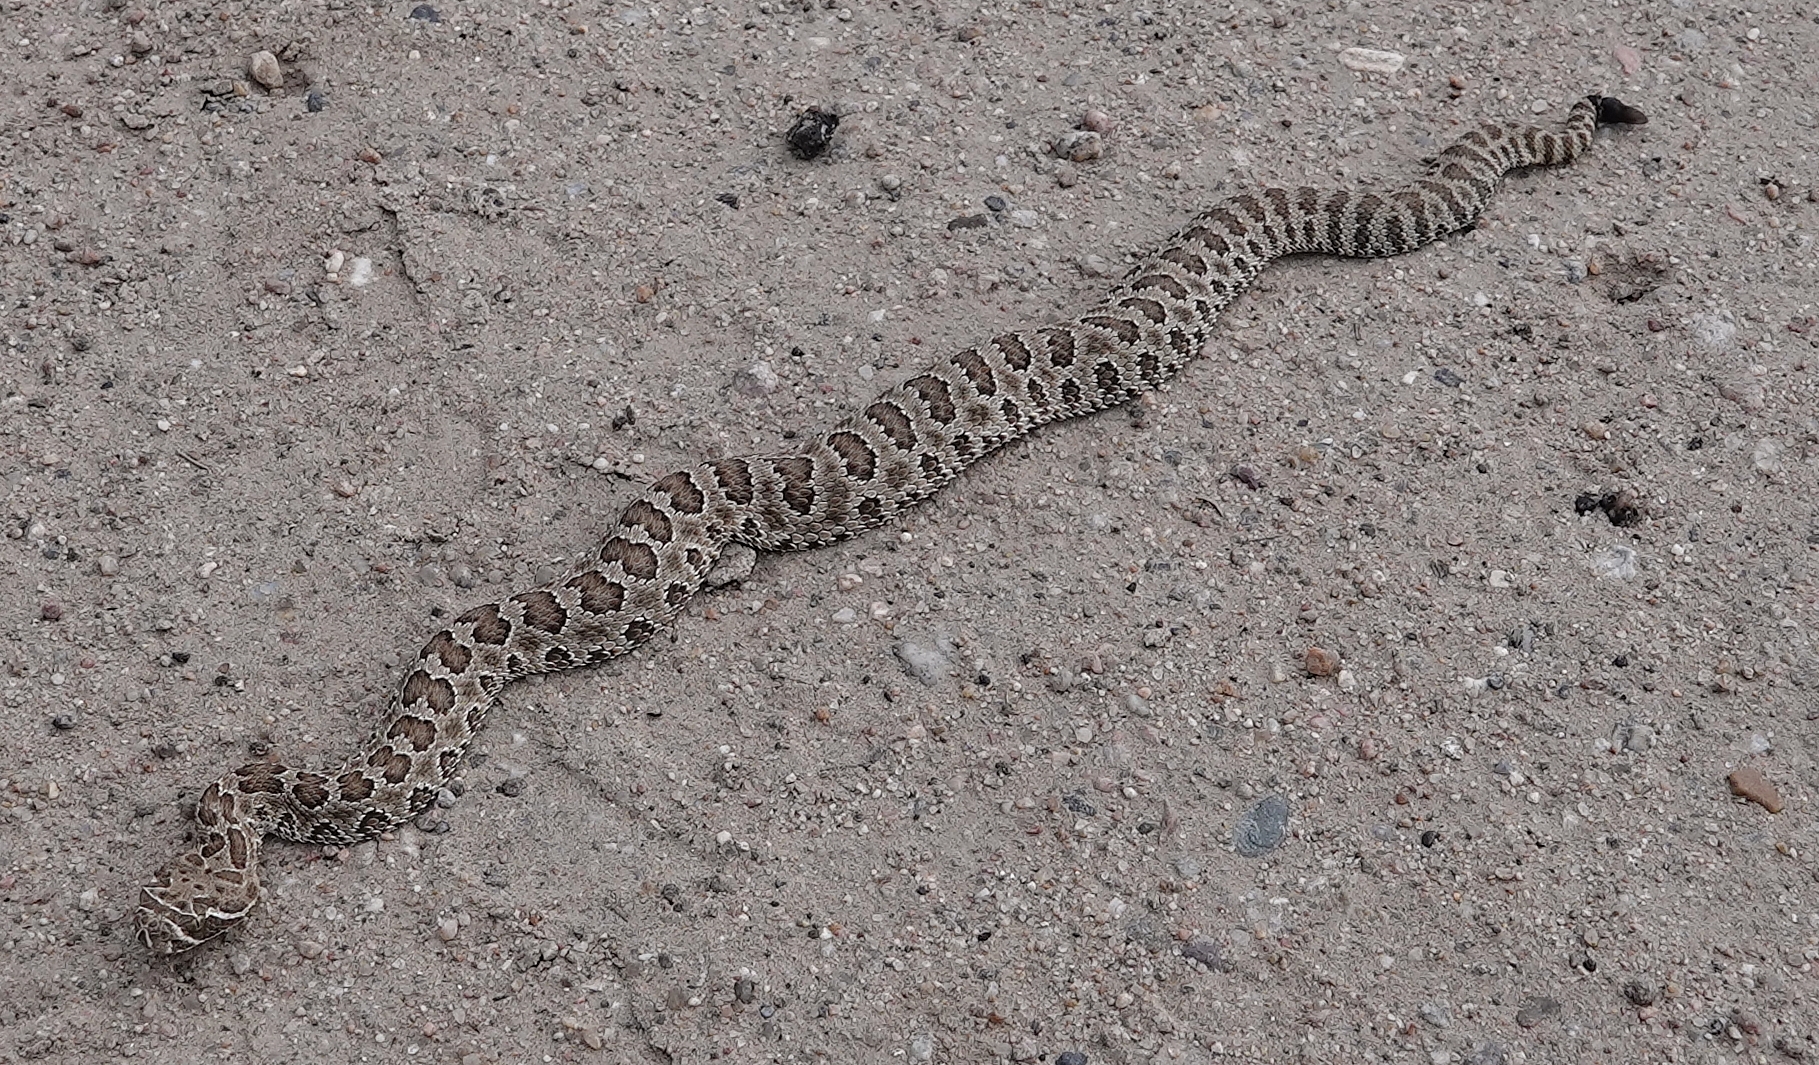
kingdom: Animalia
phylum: Chordata
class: Squamata
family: Viperidae
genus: Crotalus
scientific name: Crotalus viridis
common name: Prairie rattlesnake
